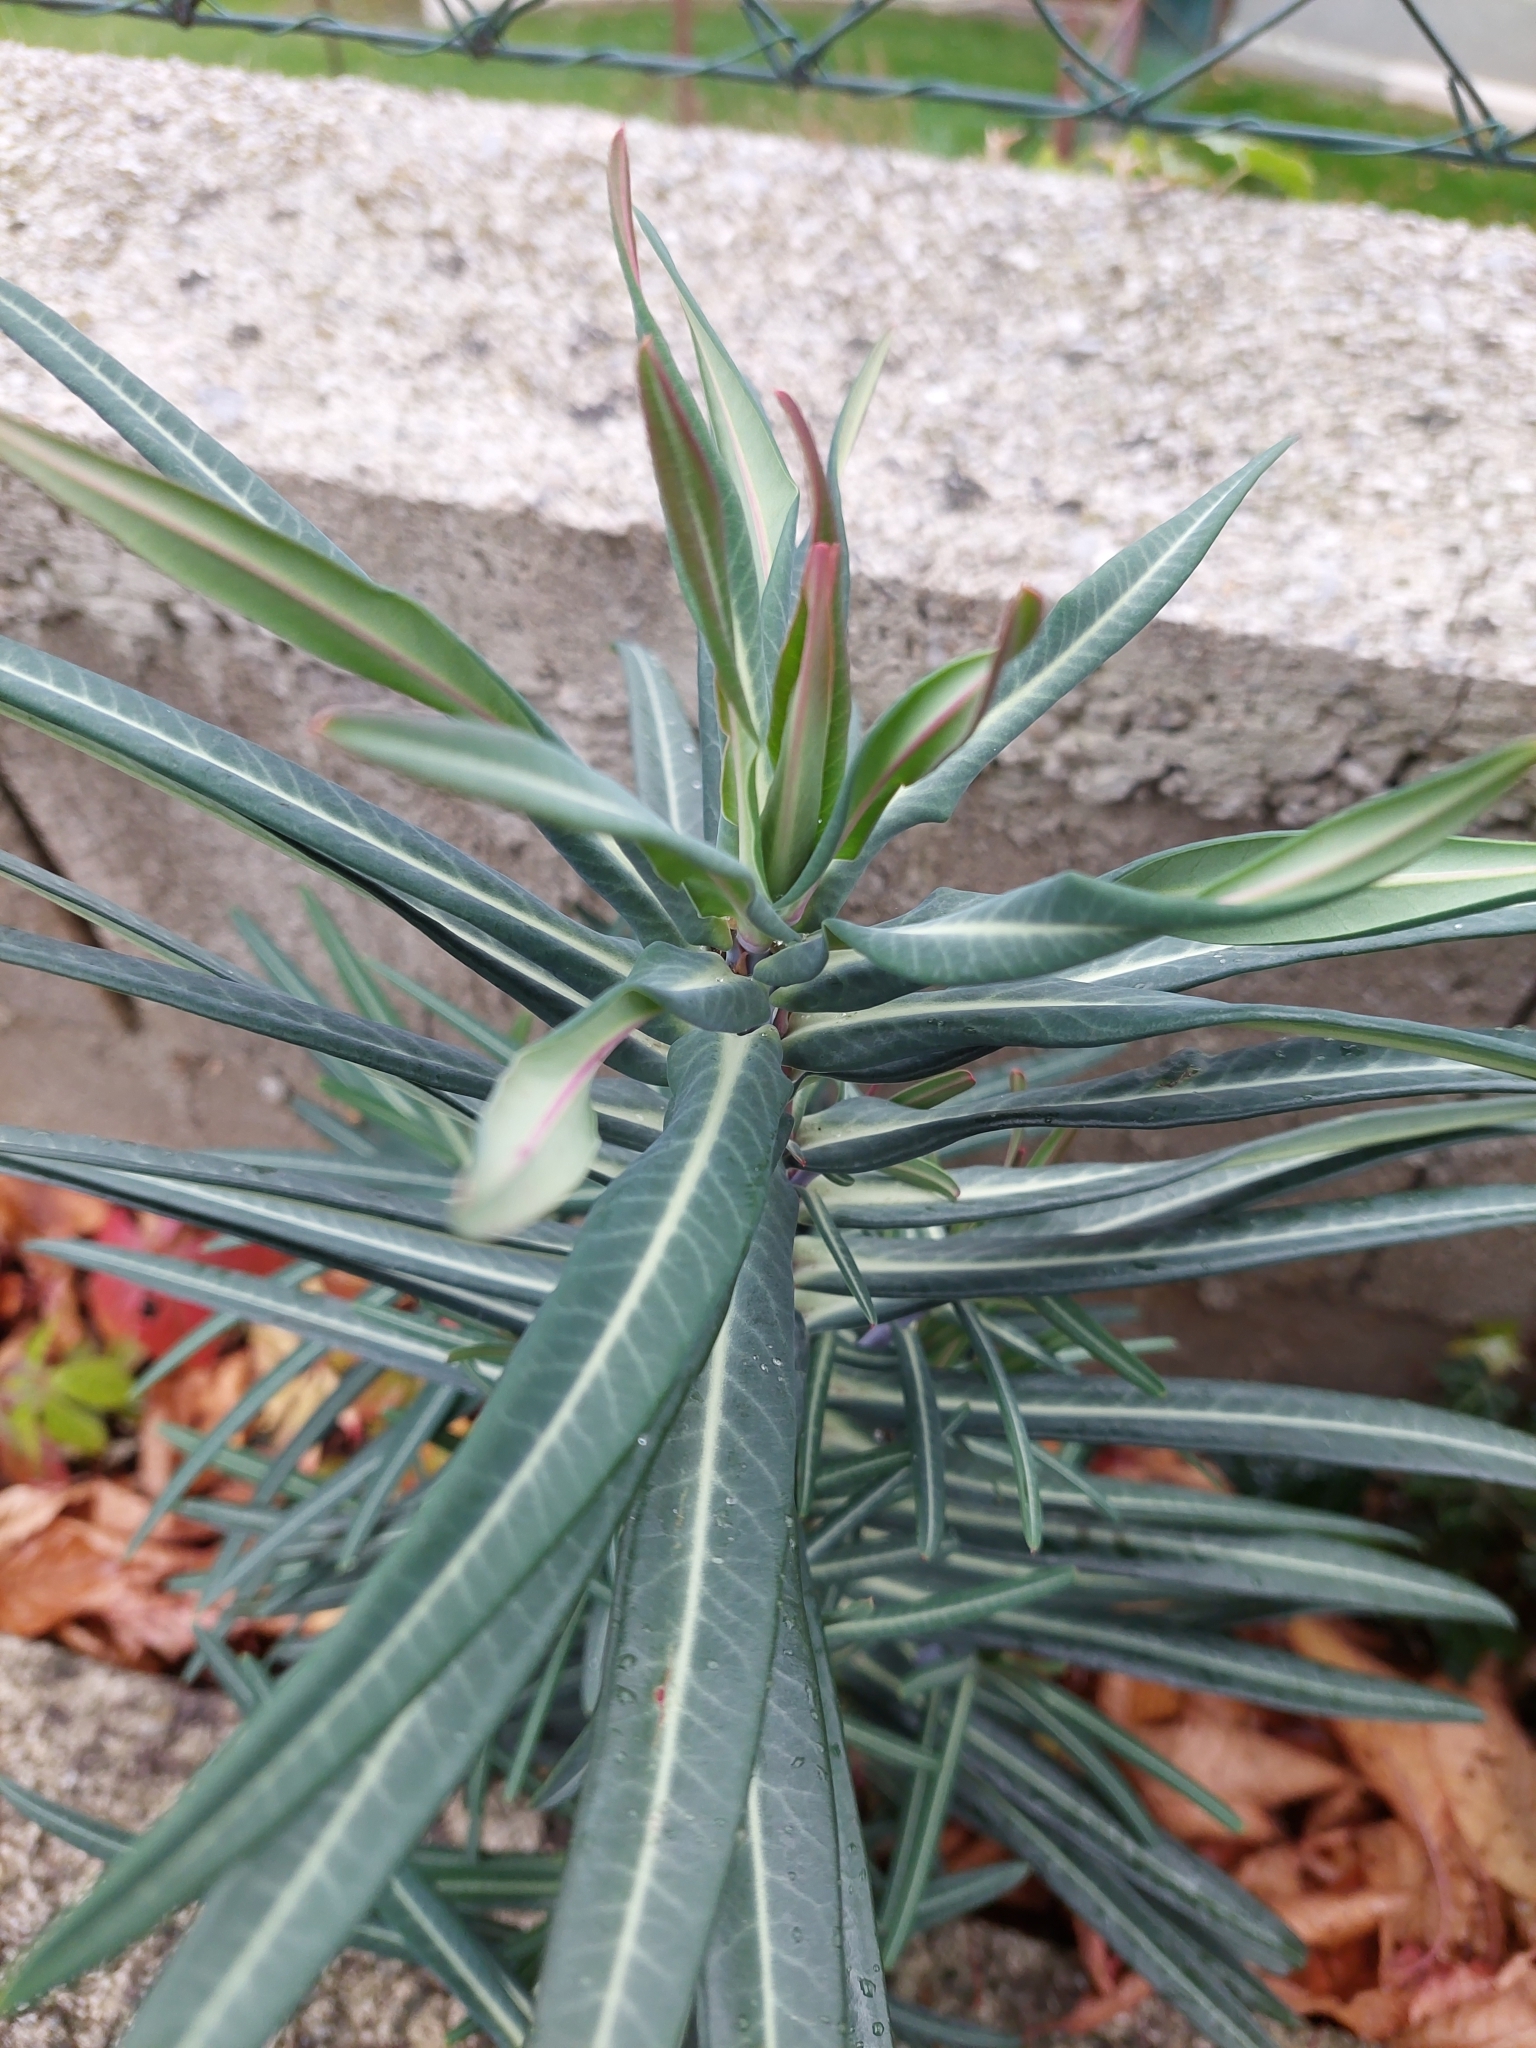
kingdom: Plantae
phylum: Tracheophyta
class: Magnoliopsida
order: Malpighiales
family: Euphorbiaceae
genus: Euphorbia
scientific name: Euphorbia lathyris
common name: Caper spurge
